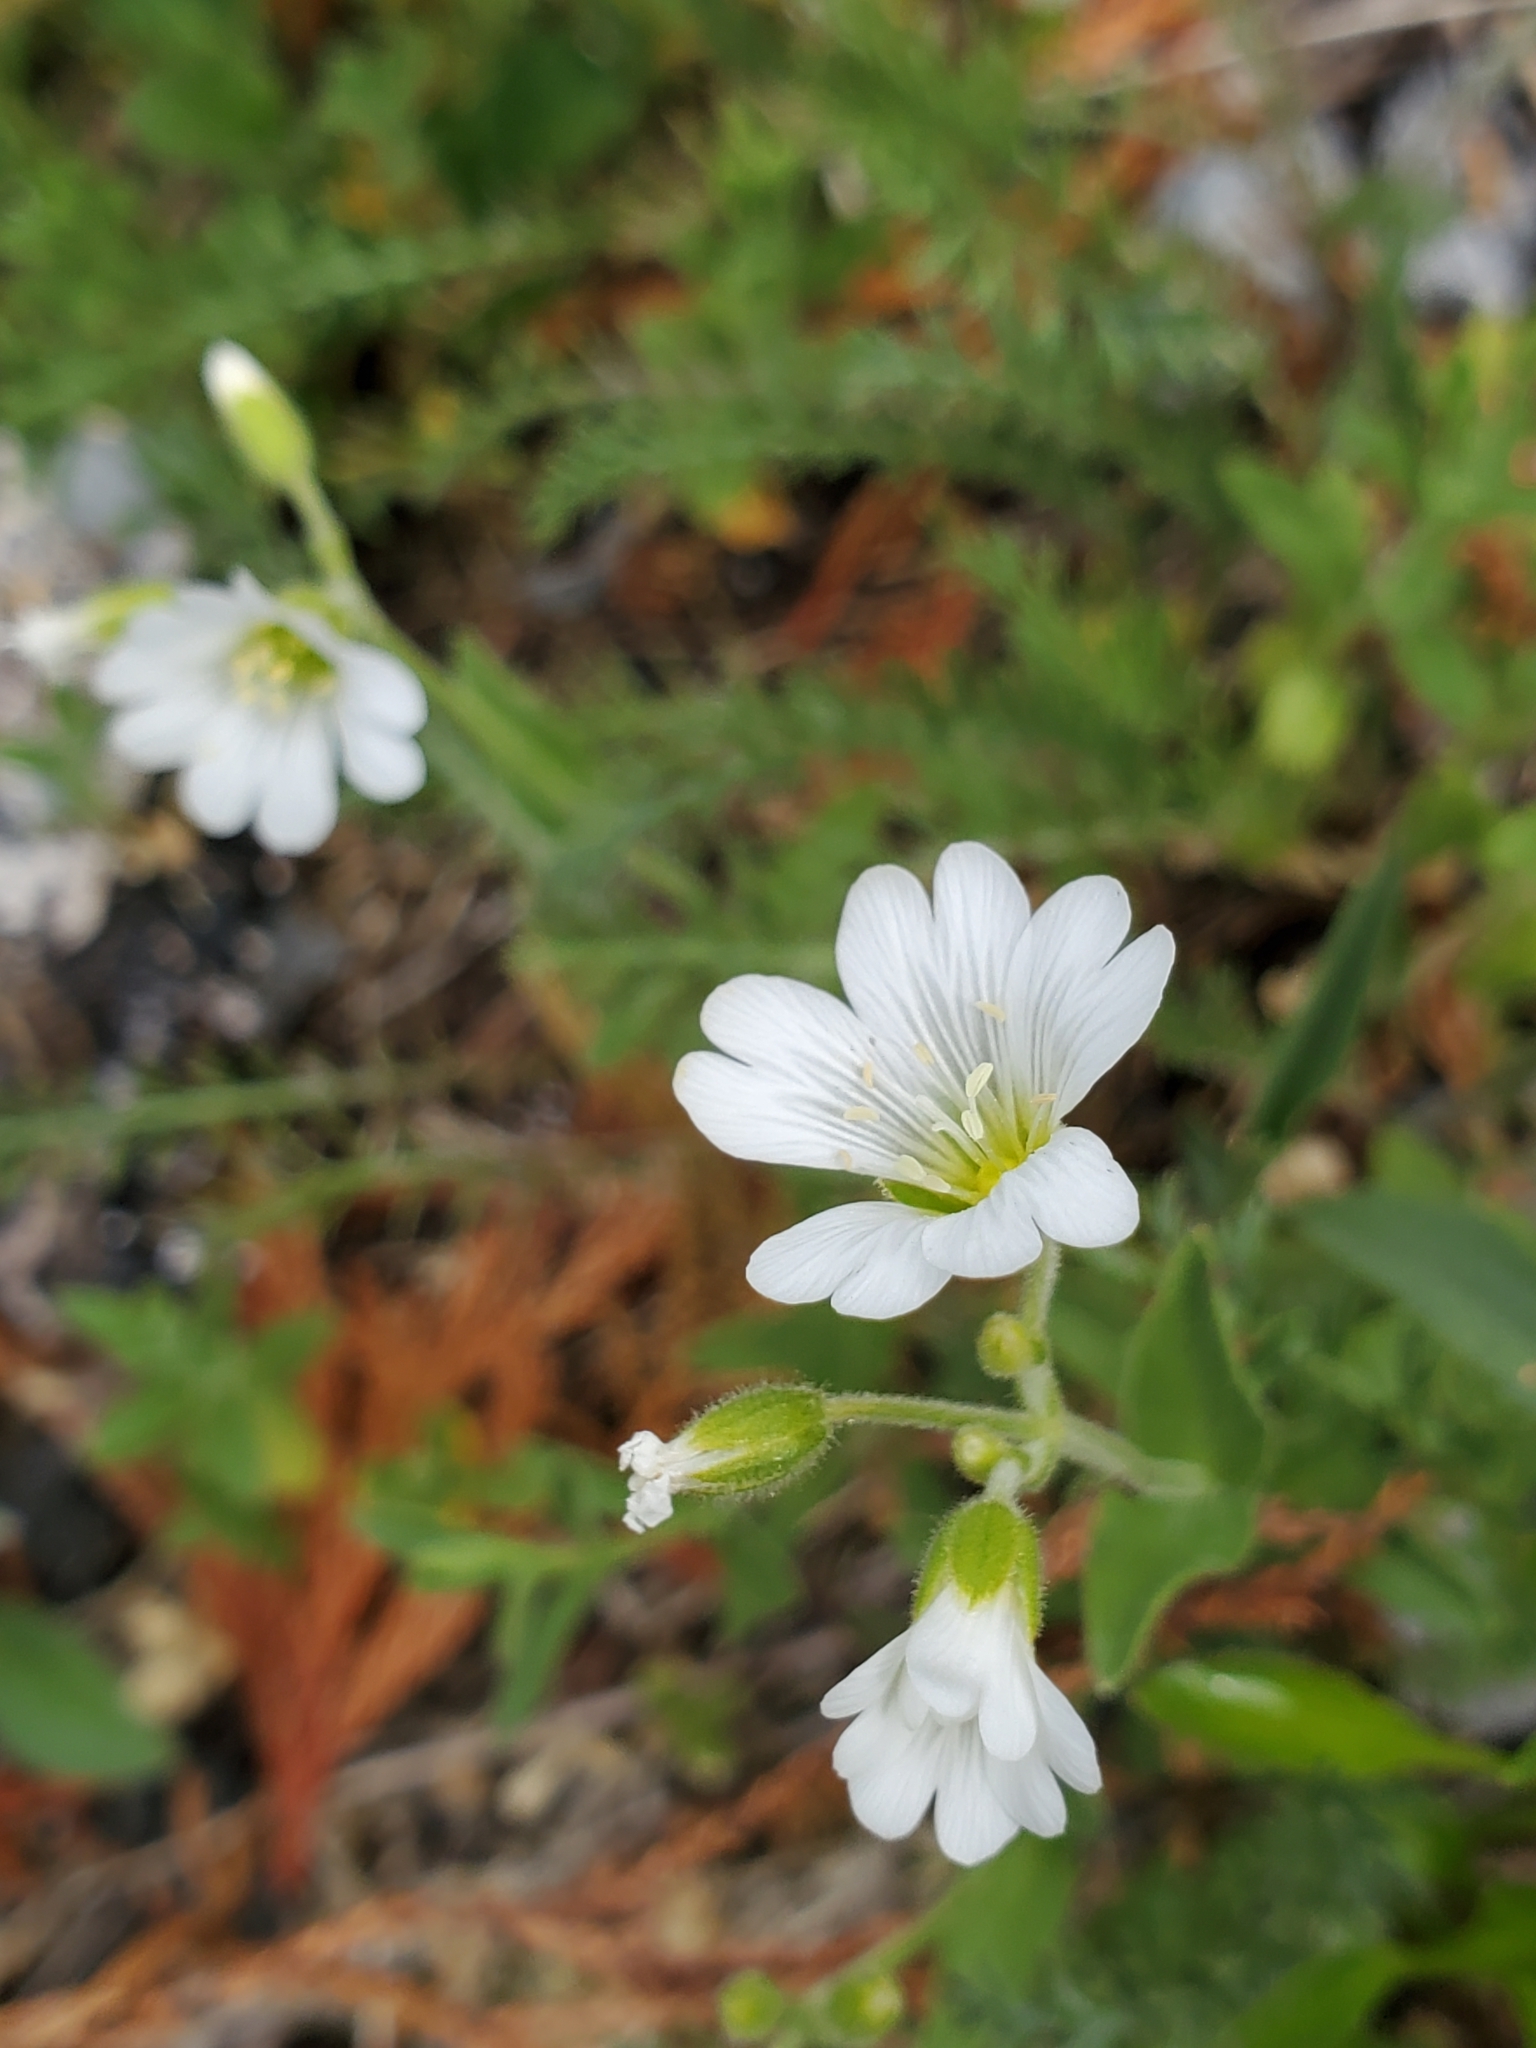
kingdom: Plantae
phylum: Tracheophyta
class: Magnoliopsida
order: Caryophyllales
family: Caryophyllaceae
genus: Cerastium
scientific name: Cerastium arvense
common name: Field mouse-ear
